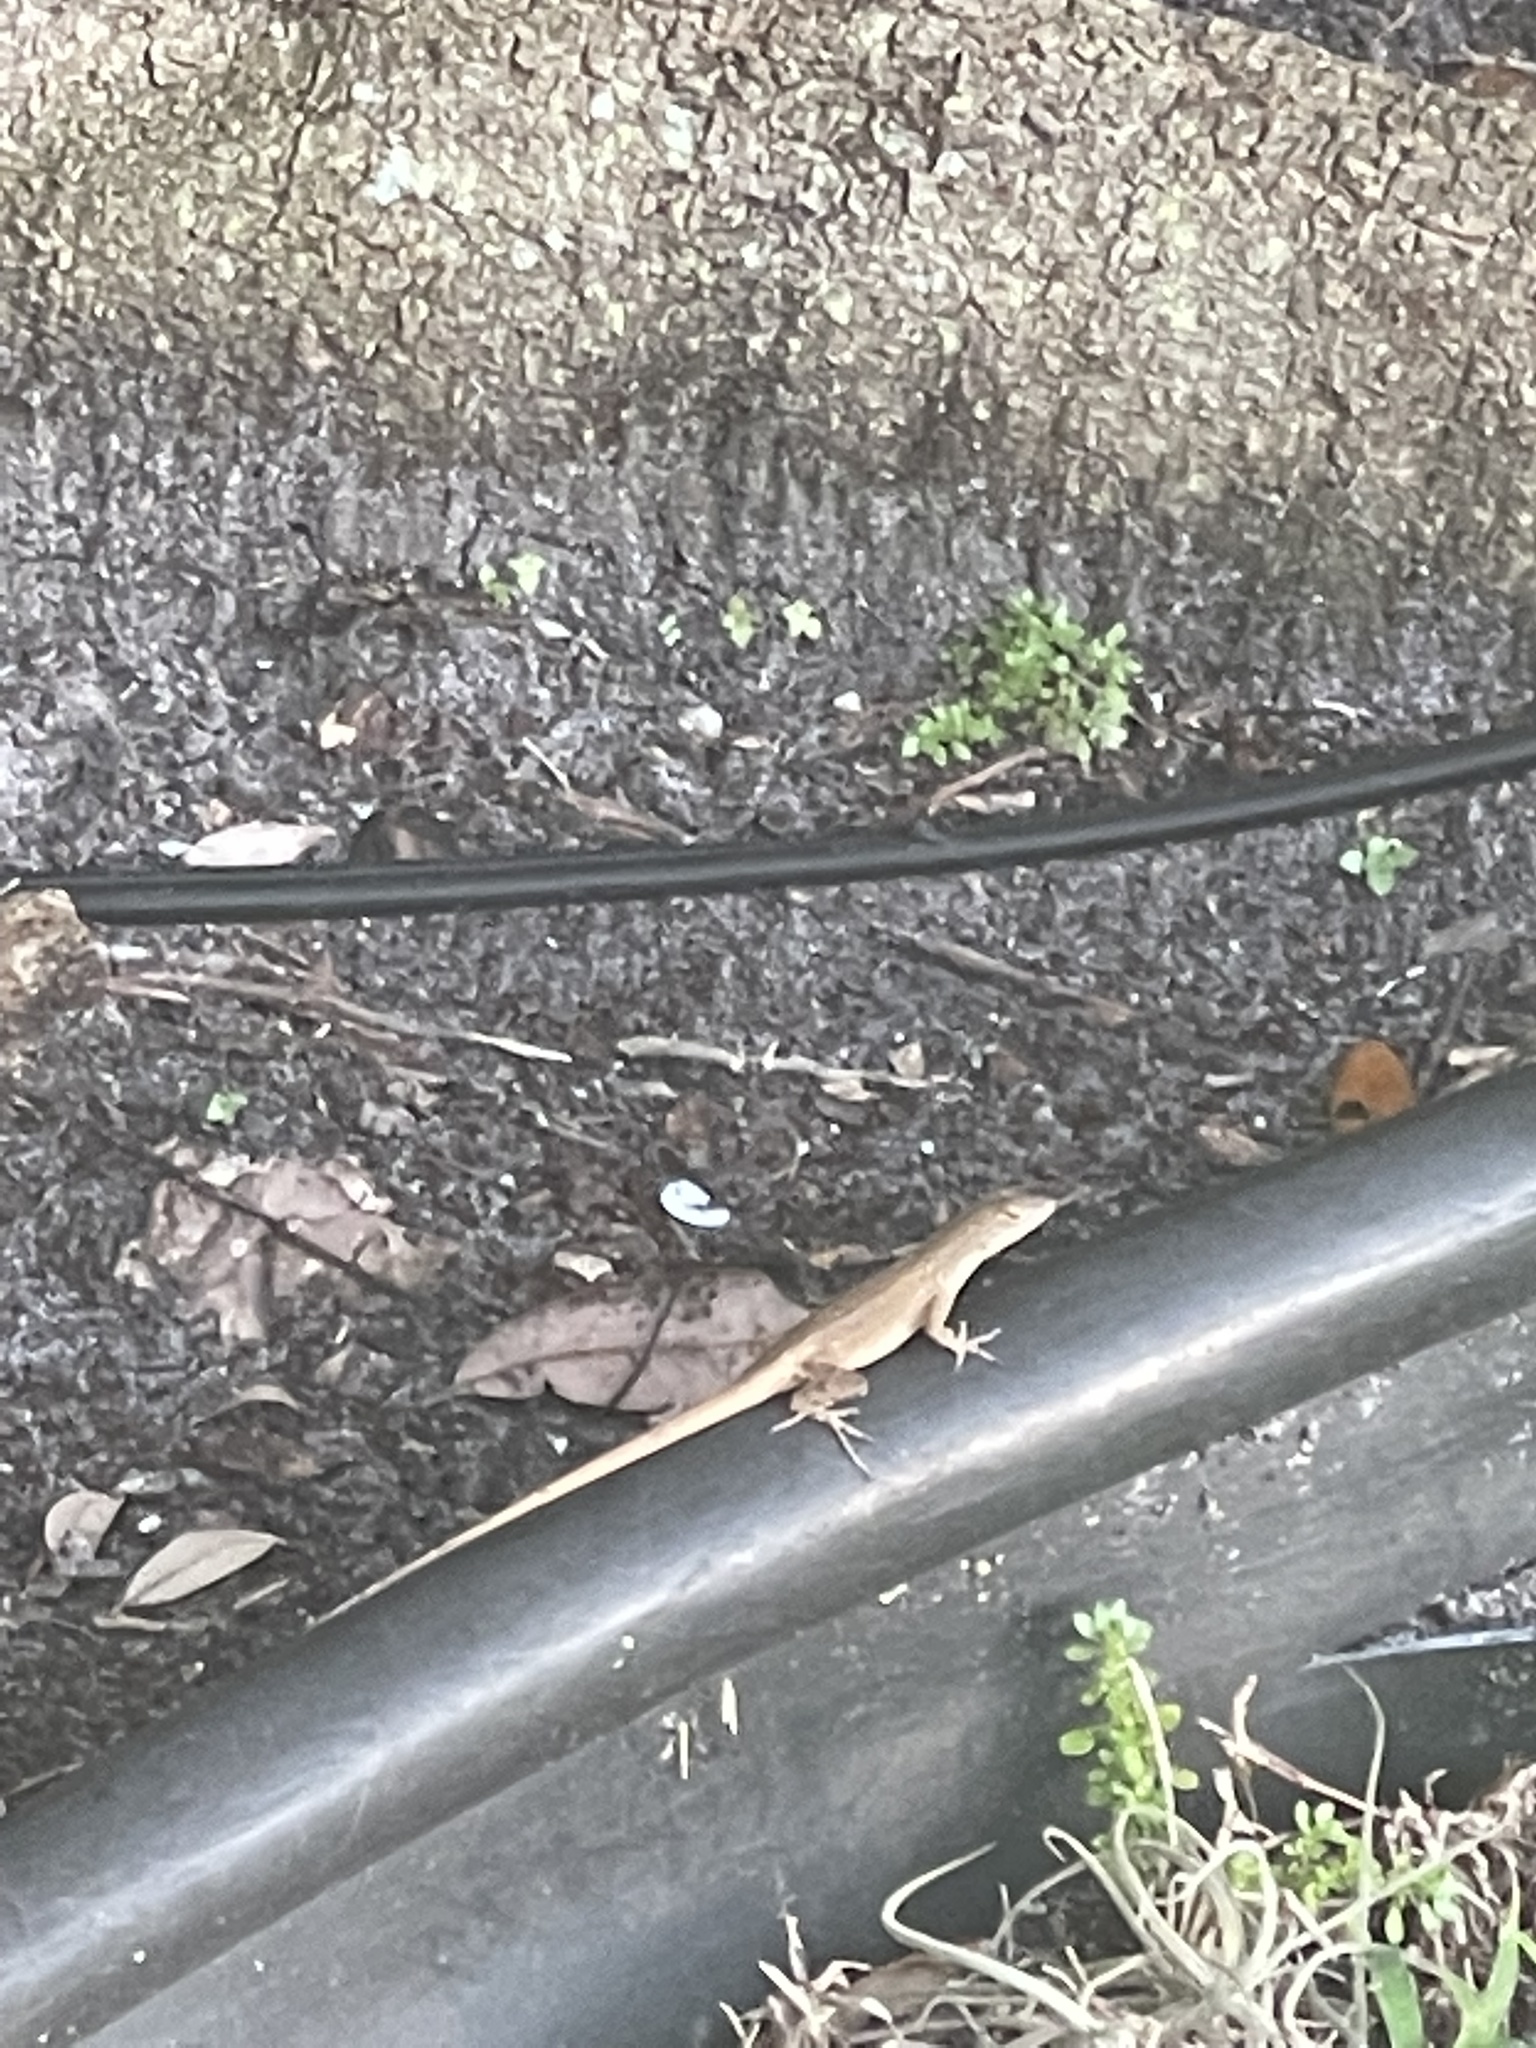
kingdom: Animalia
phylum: Chordata
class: Squamata
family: Dactyloidae
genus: Anolis
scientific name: Anolis sagrei
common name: Brown anole
